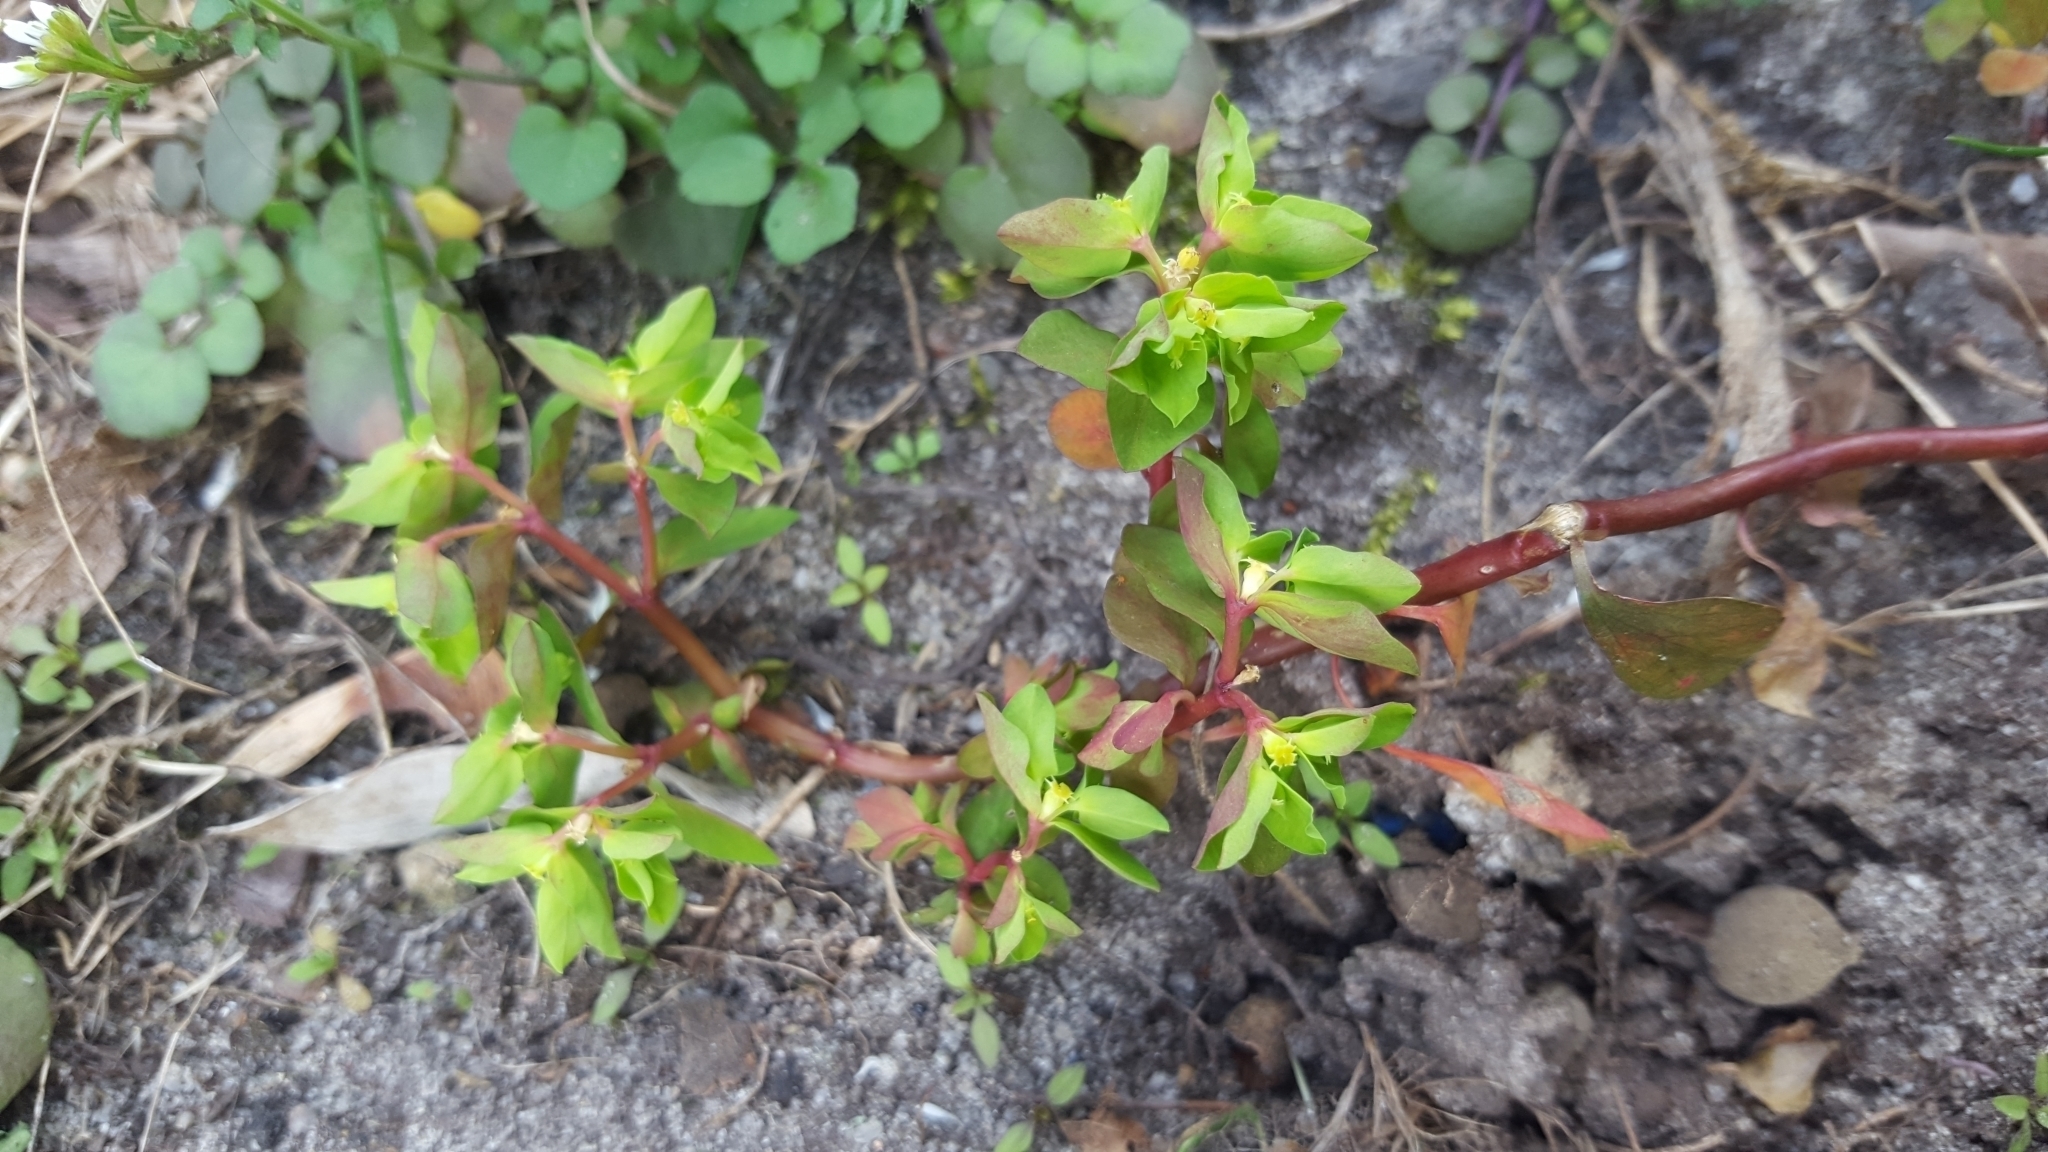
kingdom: Plantae
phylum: Tracheophyta
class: Magnoliopsida
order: Malpighiales
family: Euphorbiaceae
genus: Euphorbia
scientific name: Euphorbia peplus
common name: Petty spurge
